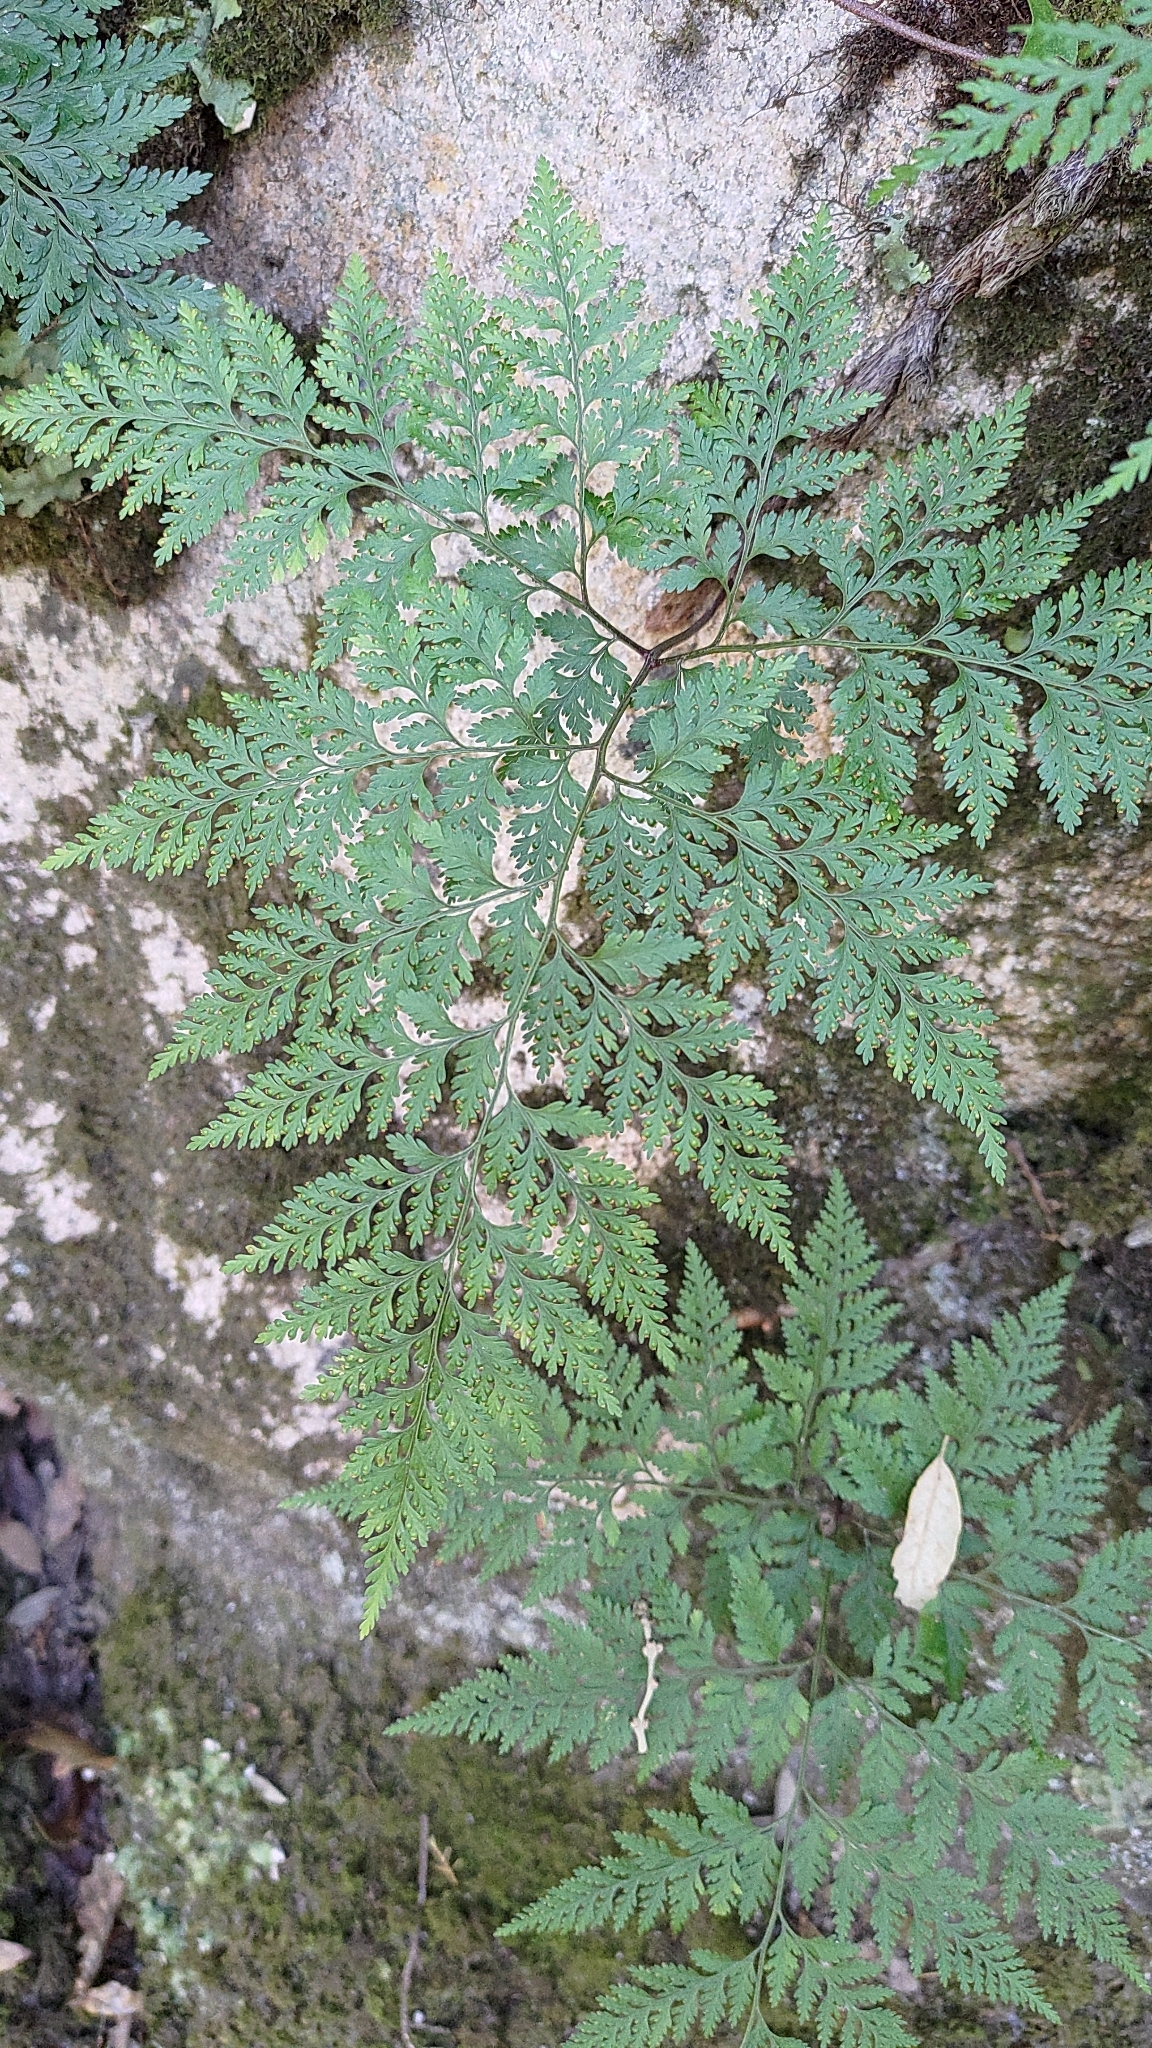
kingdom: Plantae
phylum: Tracheophyta
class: Polypodiopsida
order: Polypodiales
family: Davalliaceae
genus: Davallia
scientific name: Davallia canariensis
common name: Hare's-foot fern
